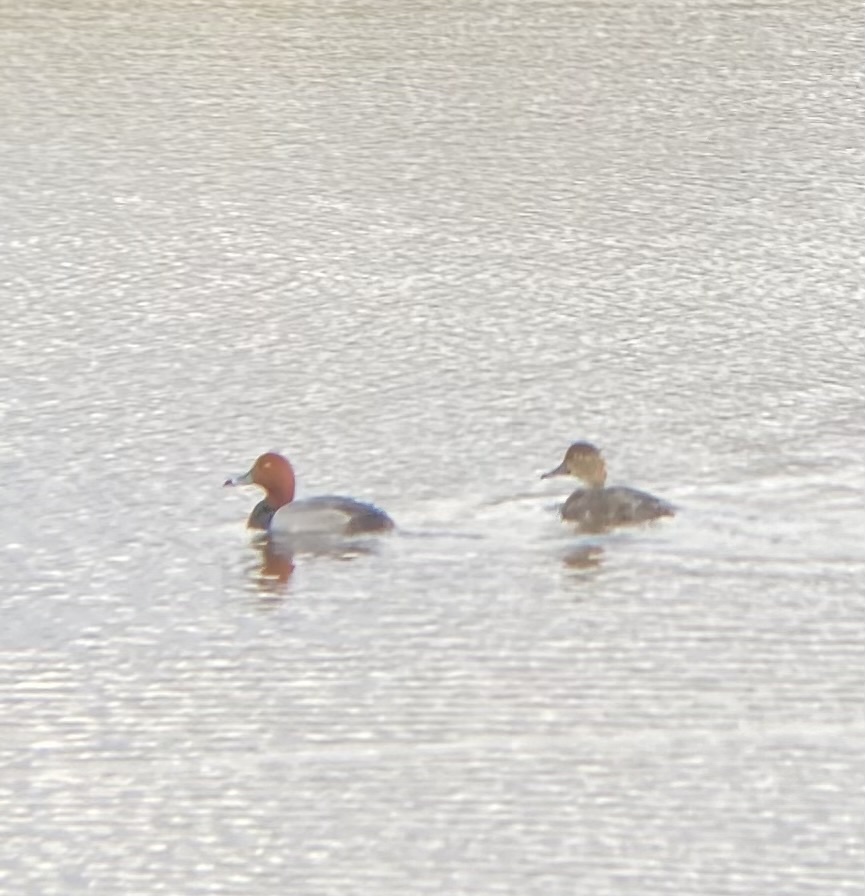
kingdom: Animalia
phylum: Chordata
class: Aves
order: Anseriformes
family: Anatidae
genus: Aythya
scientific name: Aythya americana
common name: Redhead
